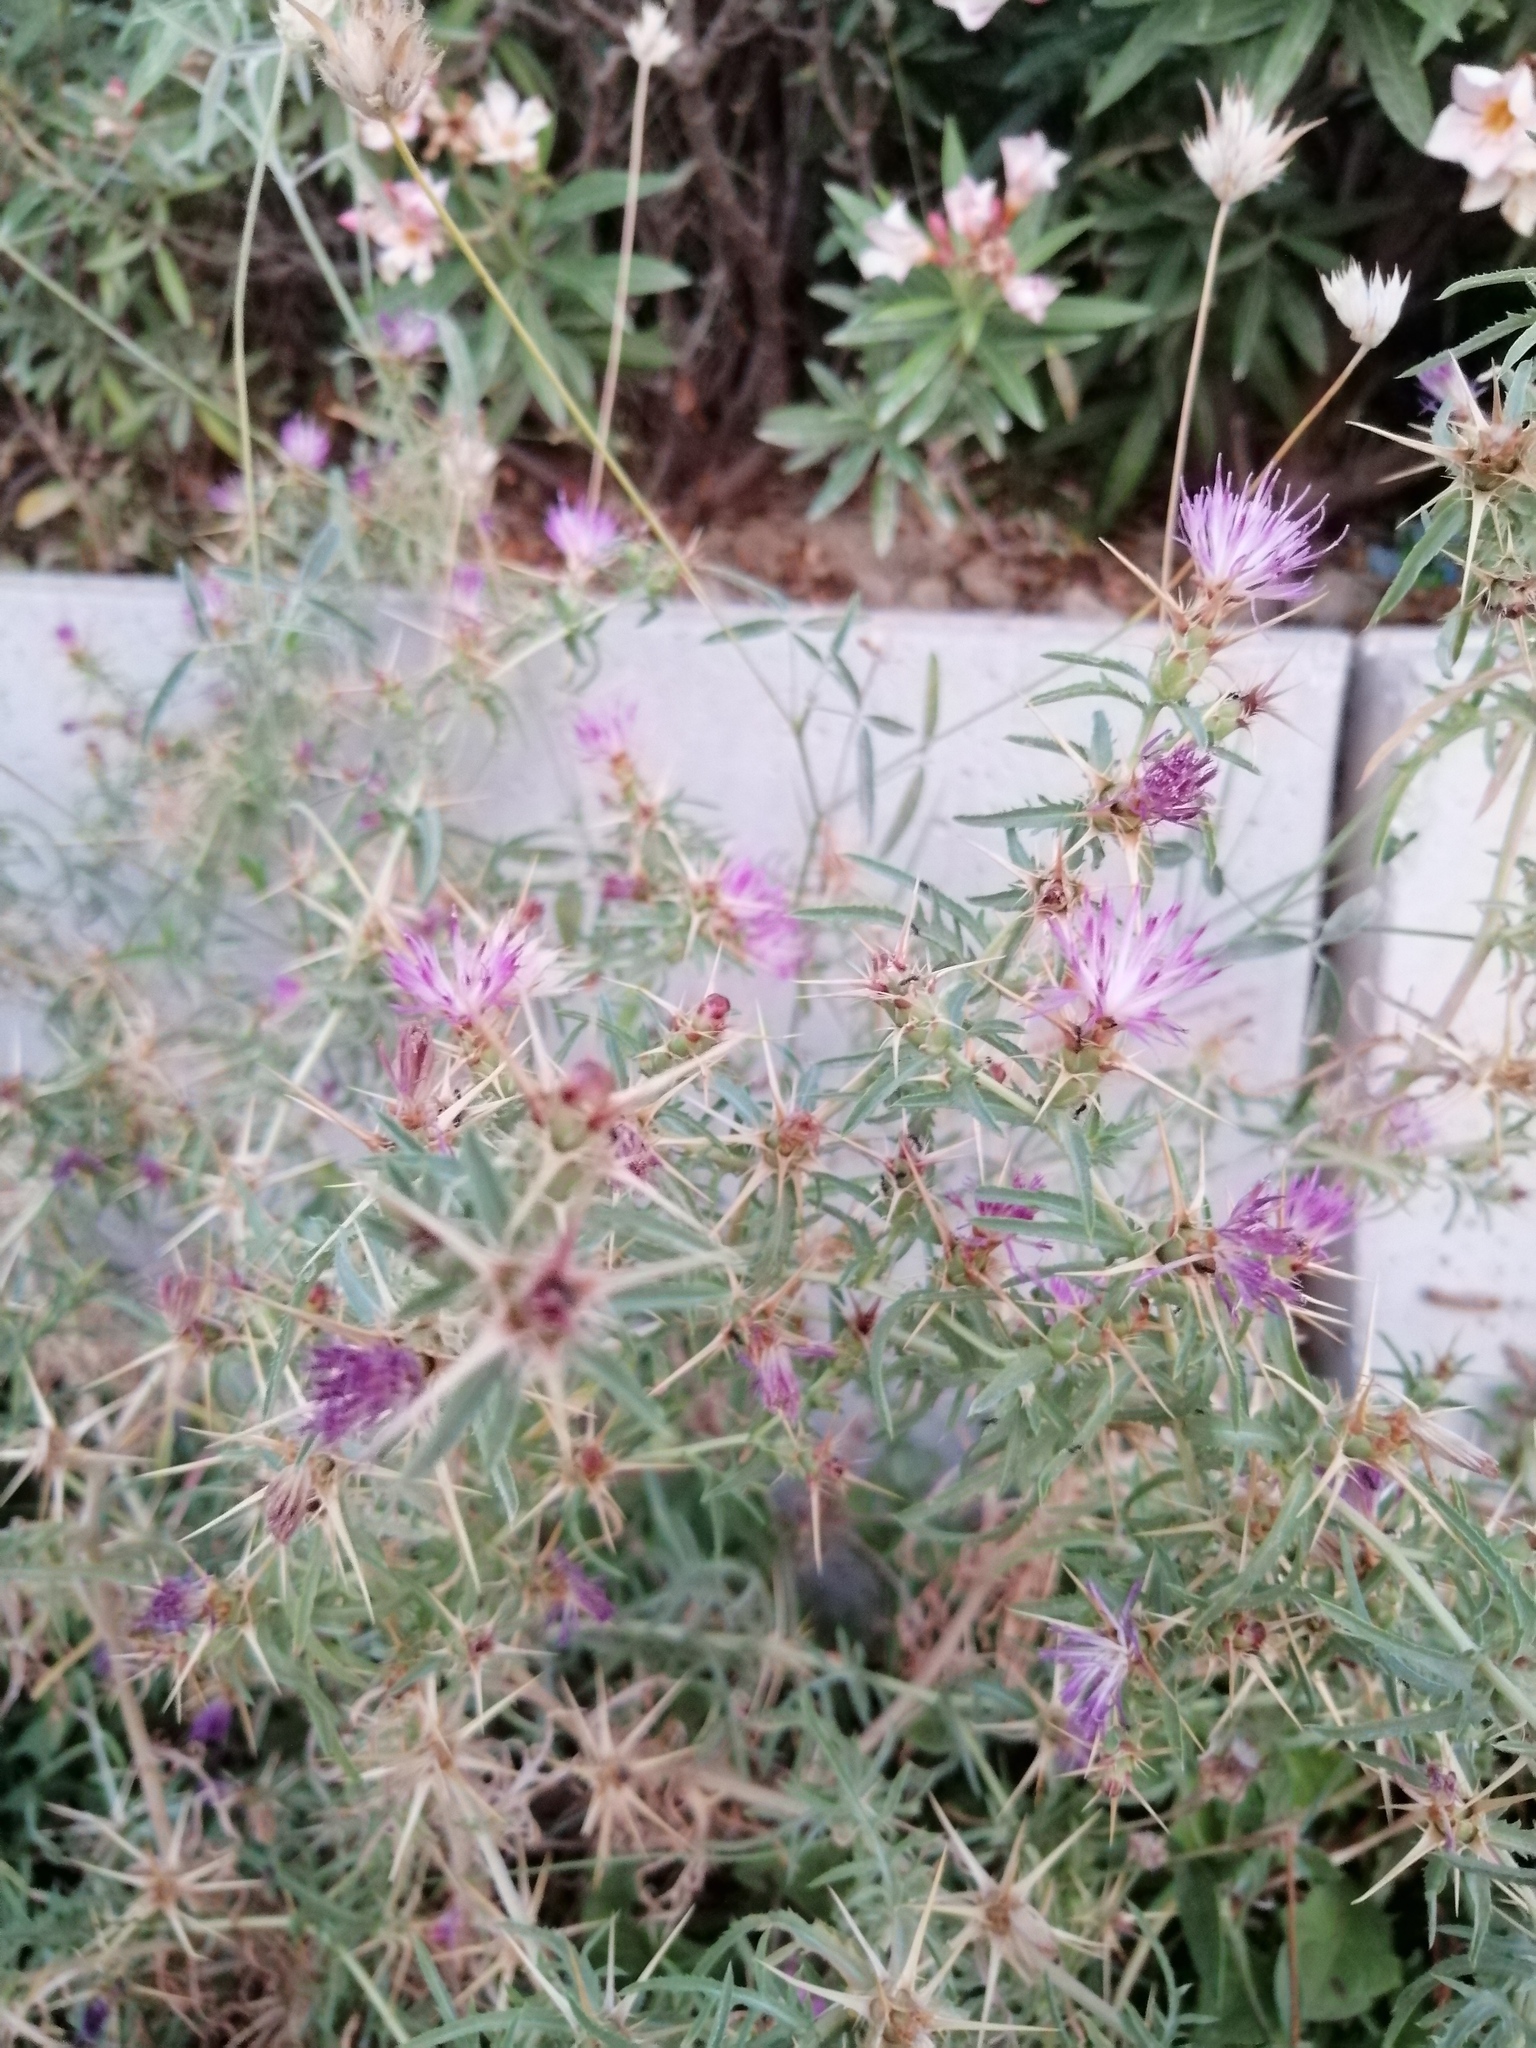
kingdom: Plantae
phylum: Tracheophyta
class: Magnoliopsida
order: Asterales
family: Asteraceae
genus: Centaurea
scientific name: Centaurea calcitrapa
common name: Red star-thistle
